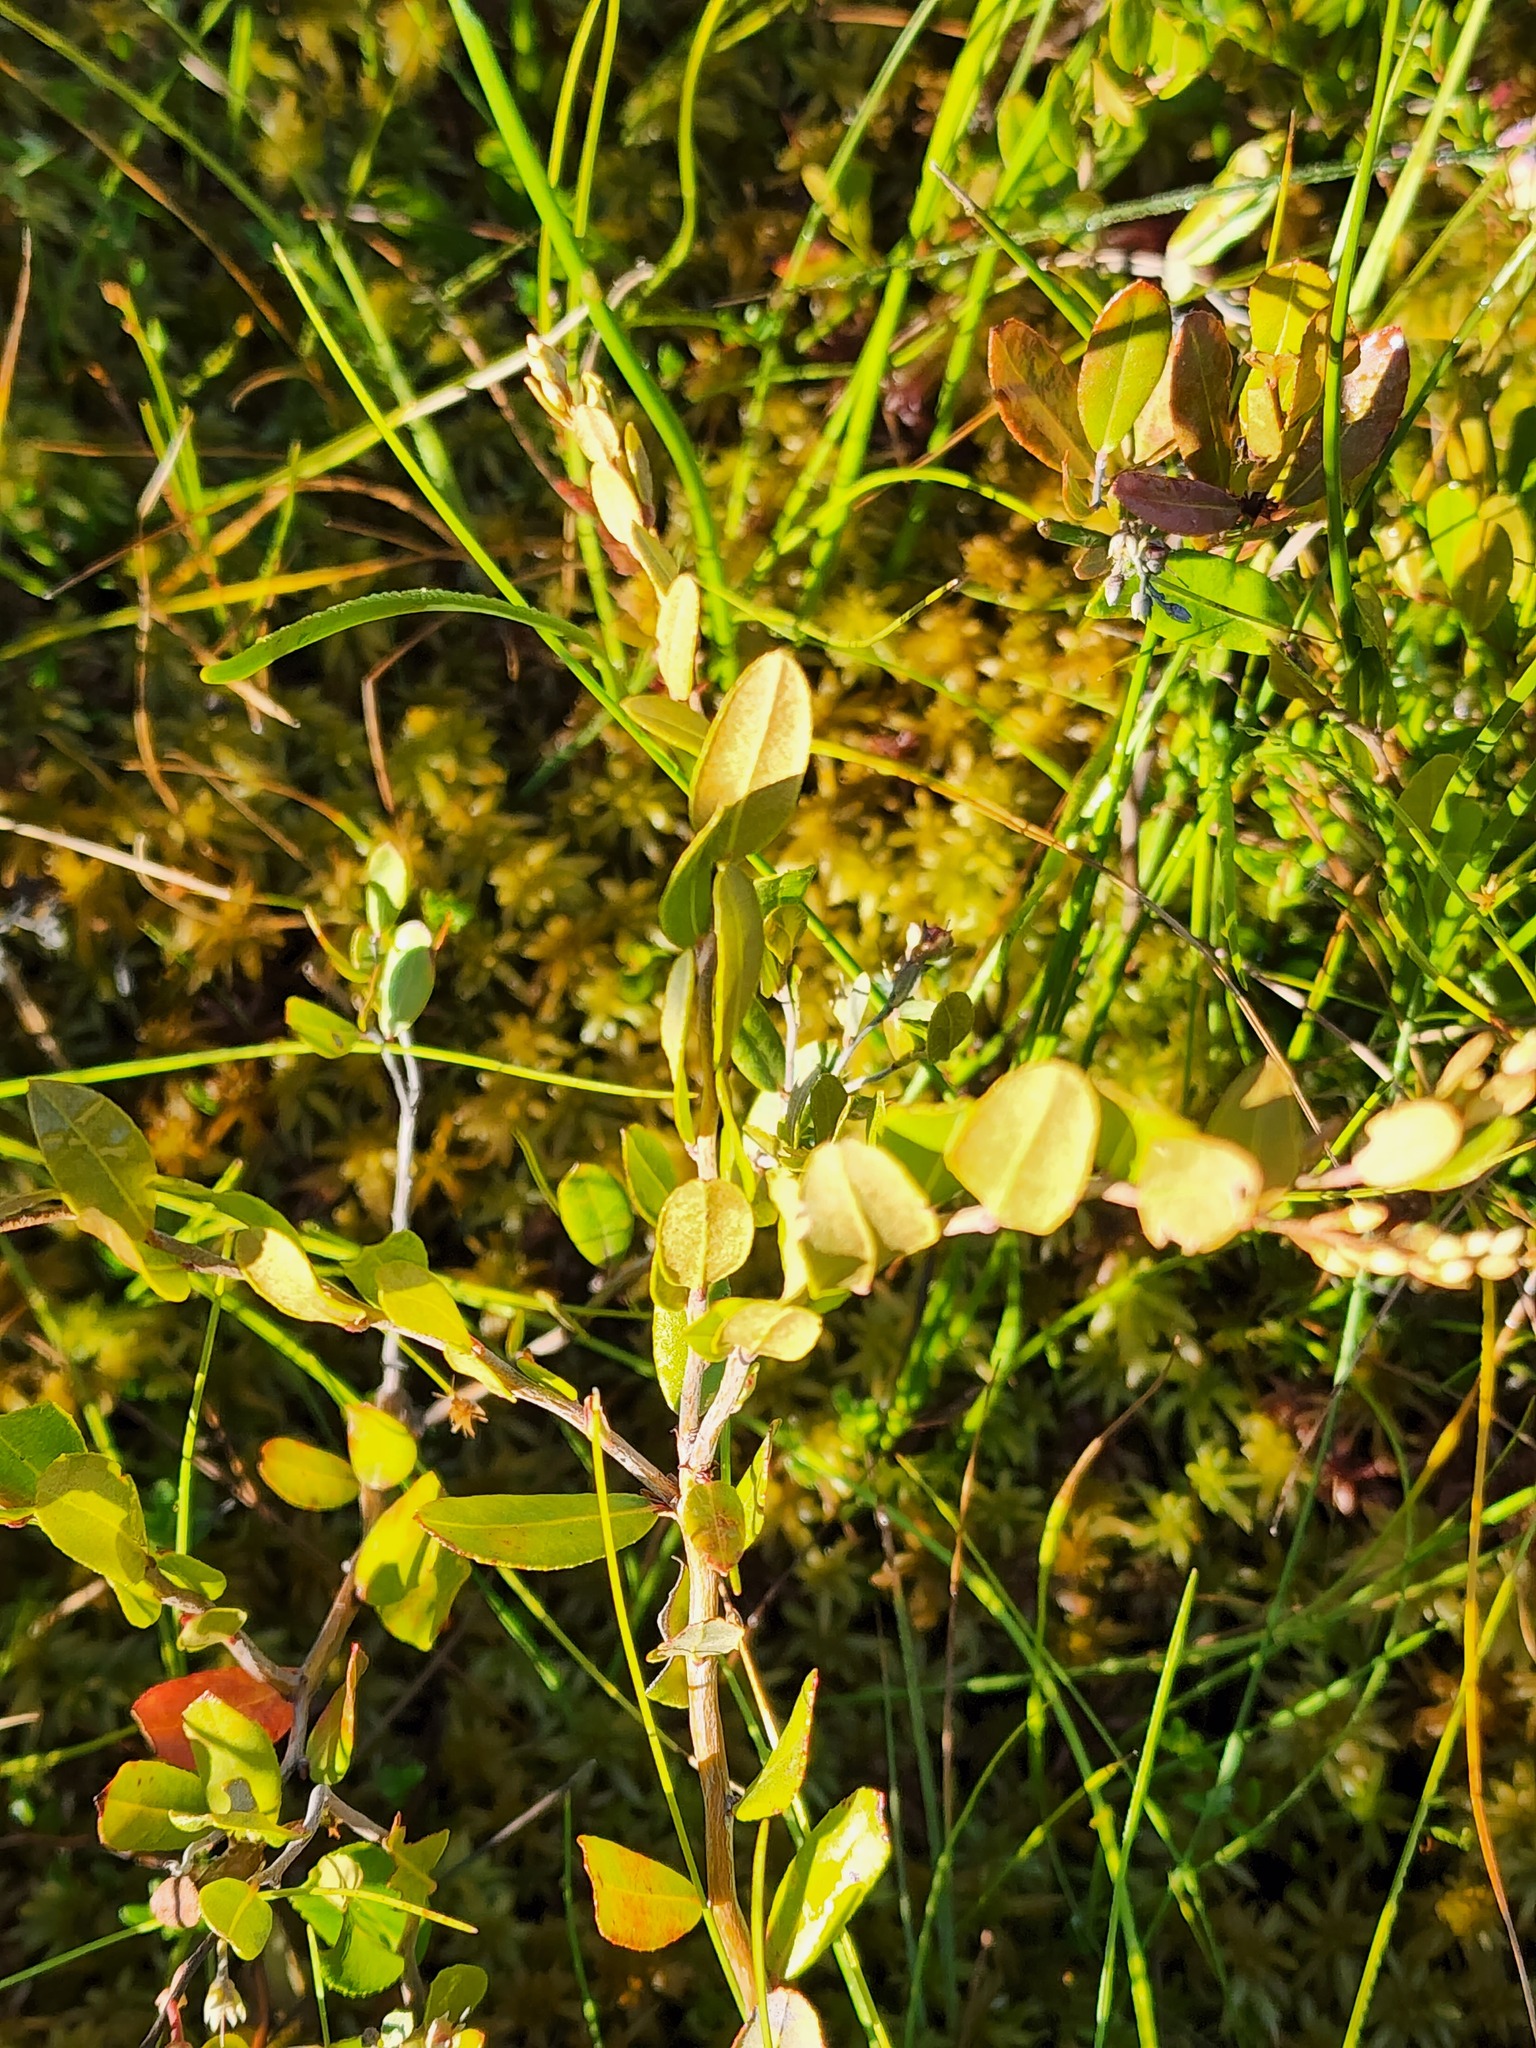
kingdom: Plantae
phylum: Tracheophyta
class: Magnoliopsida
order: Ericales
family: Ericaceae
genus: Chamaedaphne
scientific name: Chamaedaphne calyculata
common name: Leatherleaf
